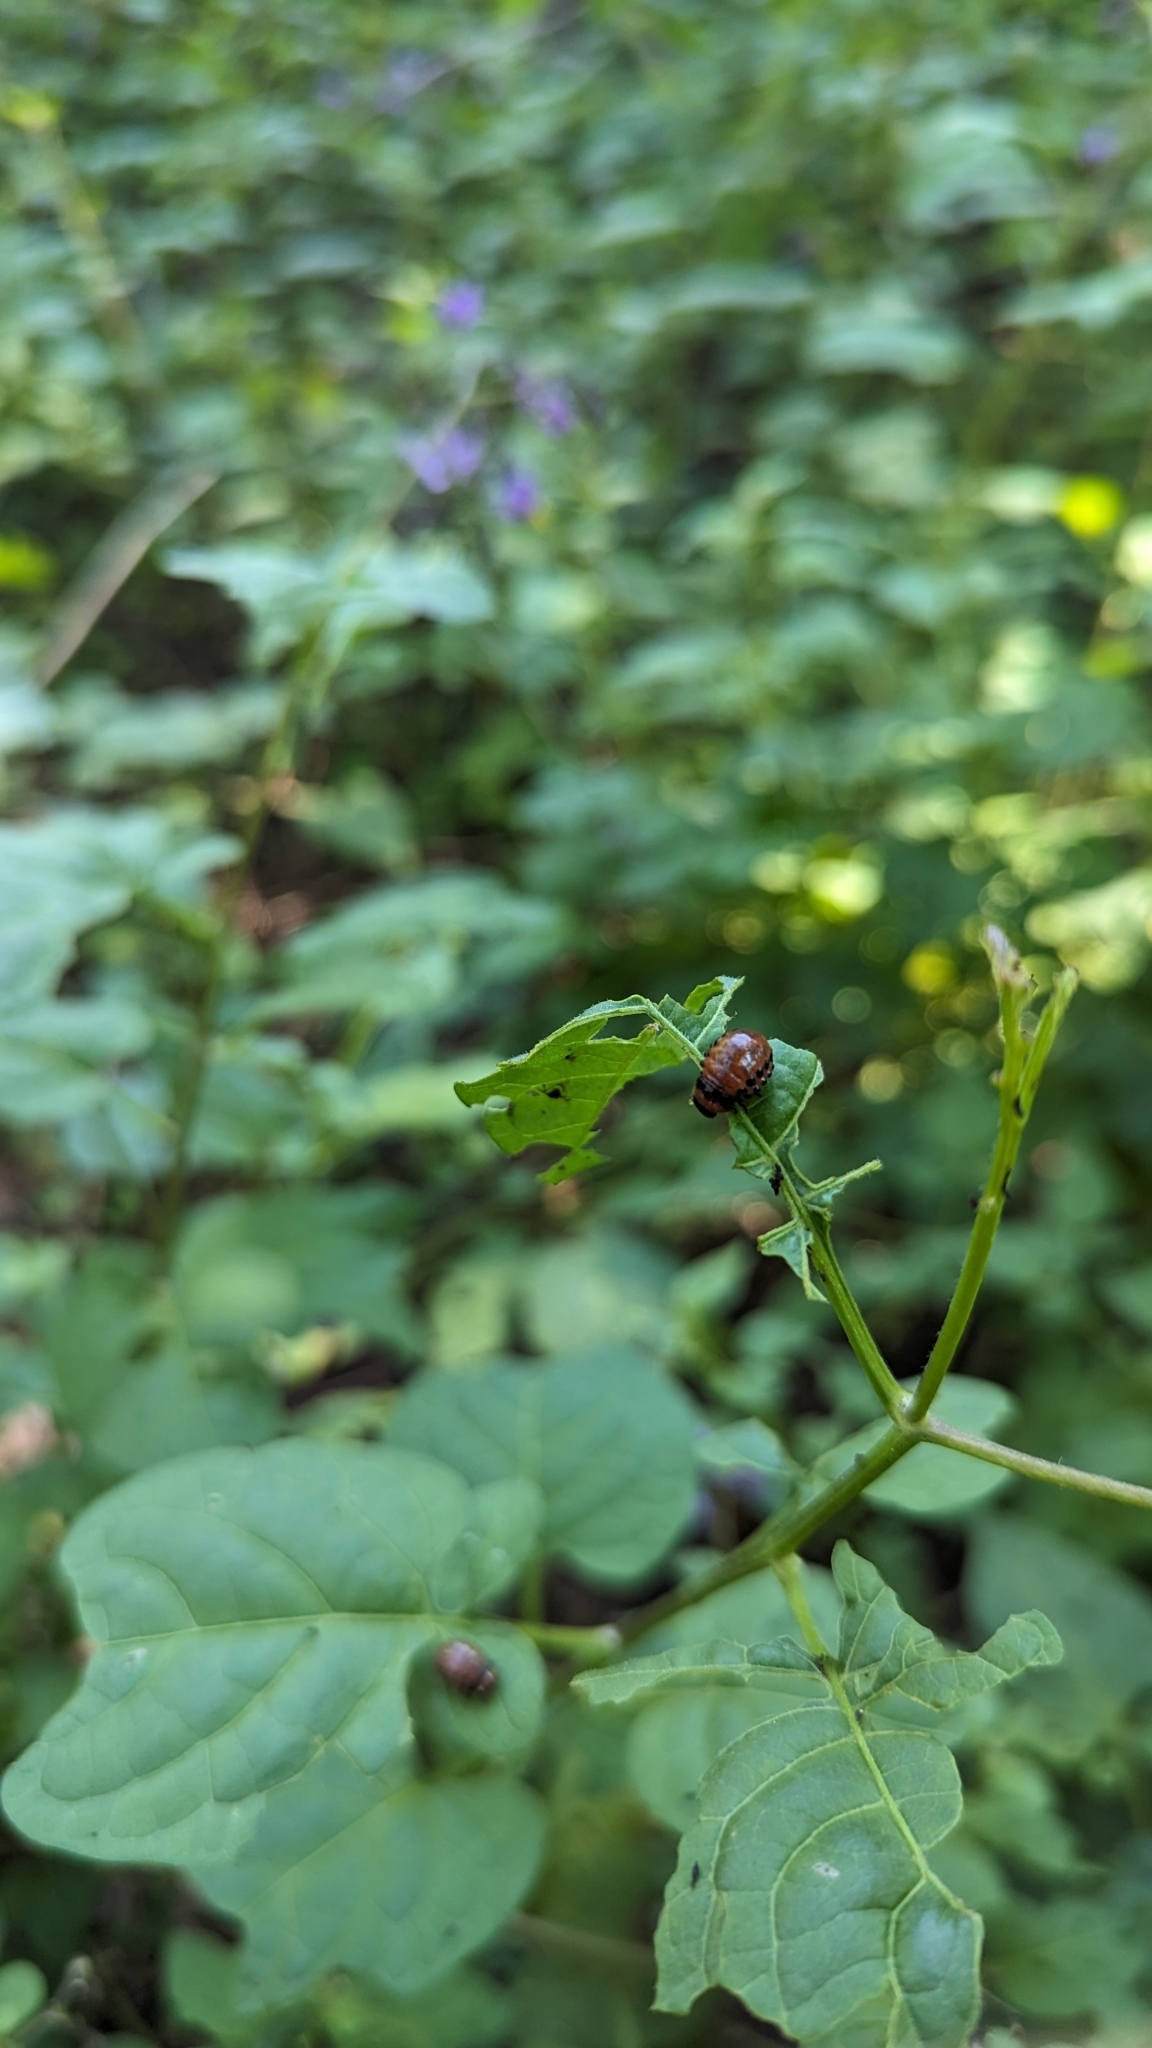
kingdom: Animalia
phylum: Arthropoda
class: Insecta
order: Coleoptera
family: Chrysomelidae
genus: Leptinotarsa
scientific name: Leptinotarsa decemlineata
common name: Colorado potato beetle
